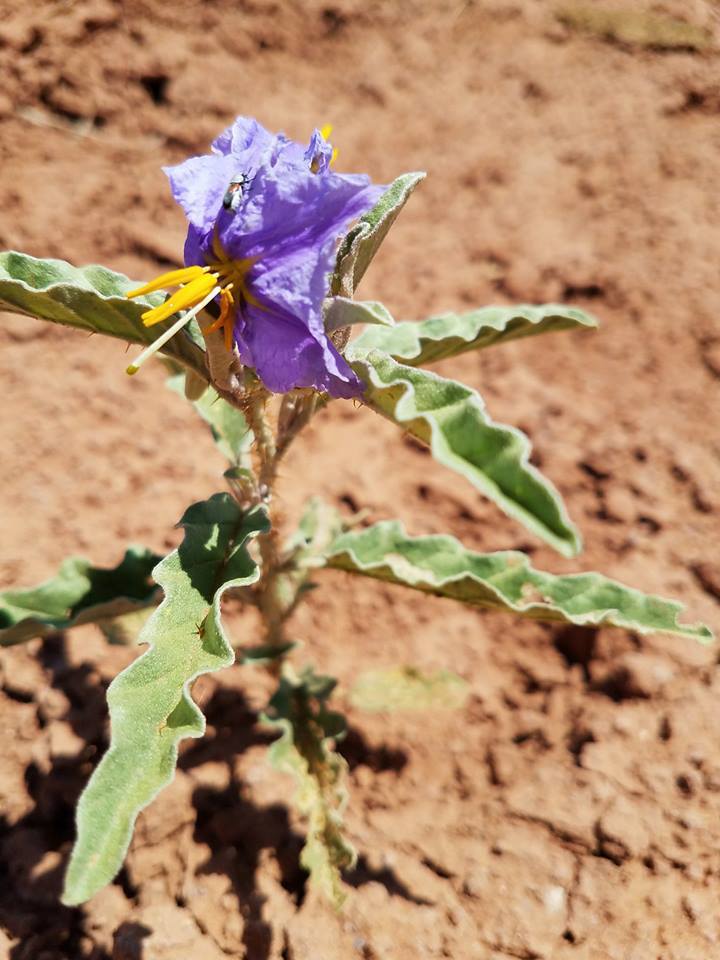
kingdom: Plantae
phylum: Tracheophyta
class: Magnoliopsida
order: Solanales
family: Solanaceae
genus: Solanum
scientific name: Solanum elaeagnifolium
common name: Silverleaf nightshade
